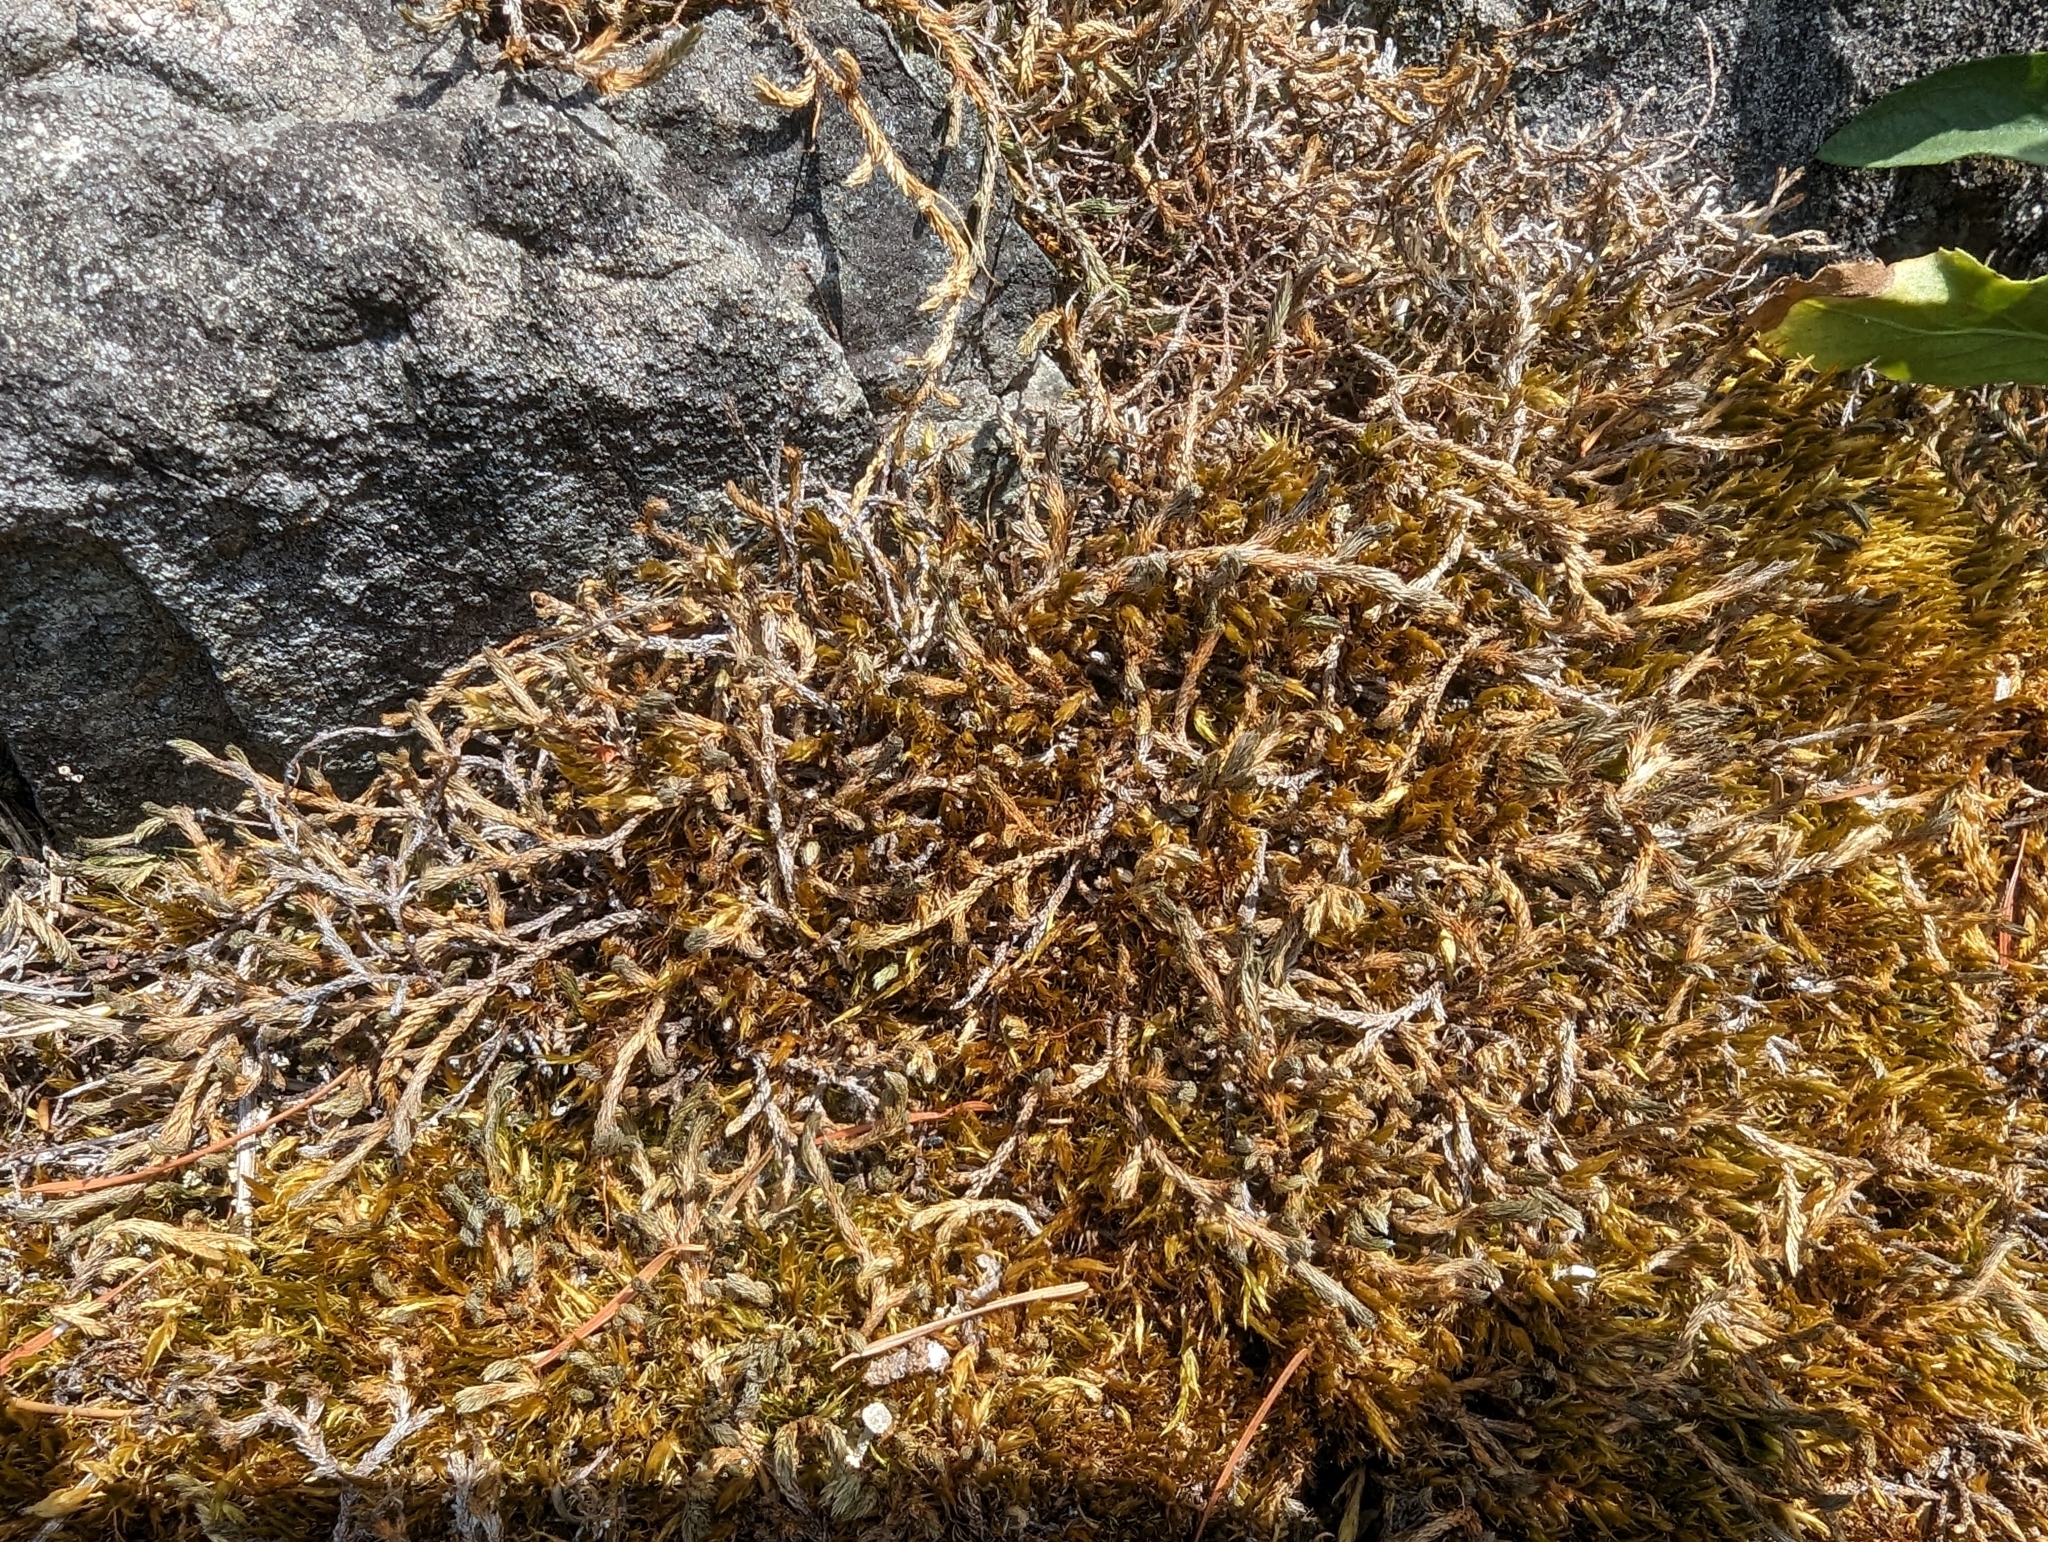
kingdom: Plantae
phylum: Tracheophyta
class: Lycopodiopsida
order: Selaginellales
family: Selaginellaceae
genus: Selaginella
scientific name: Selaginella wallacei
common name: Wallace's selaginella
